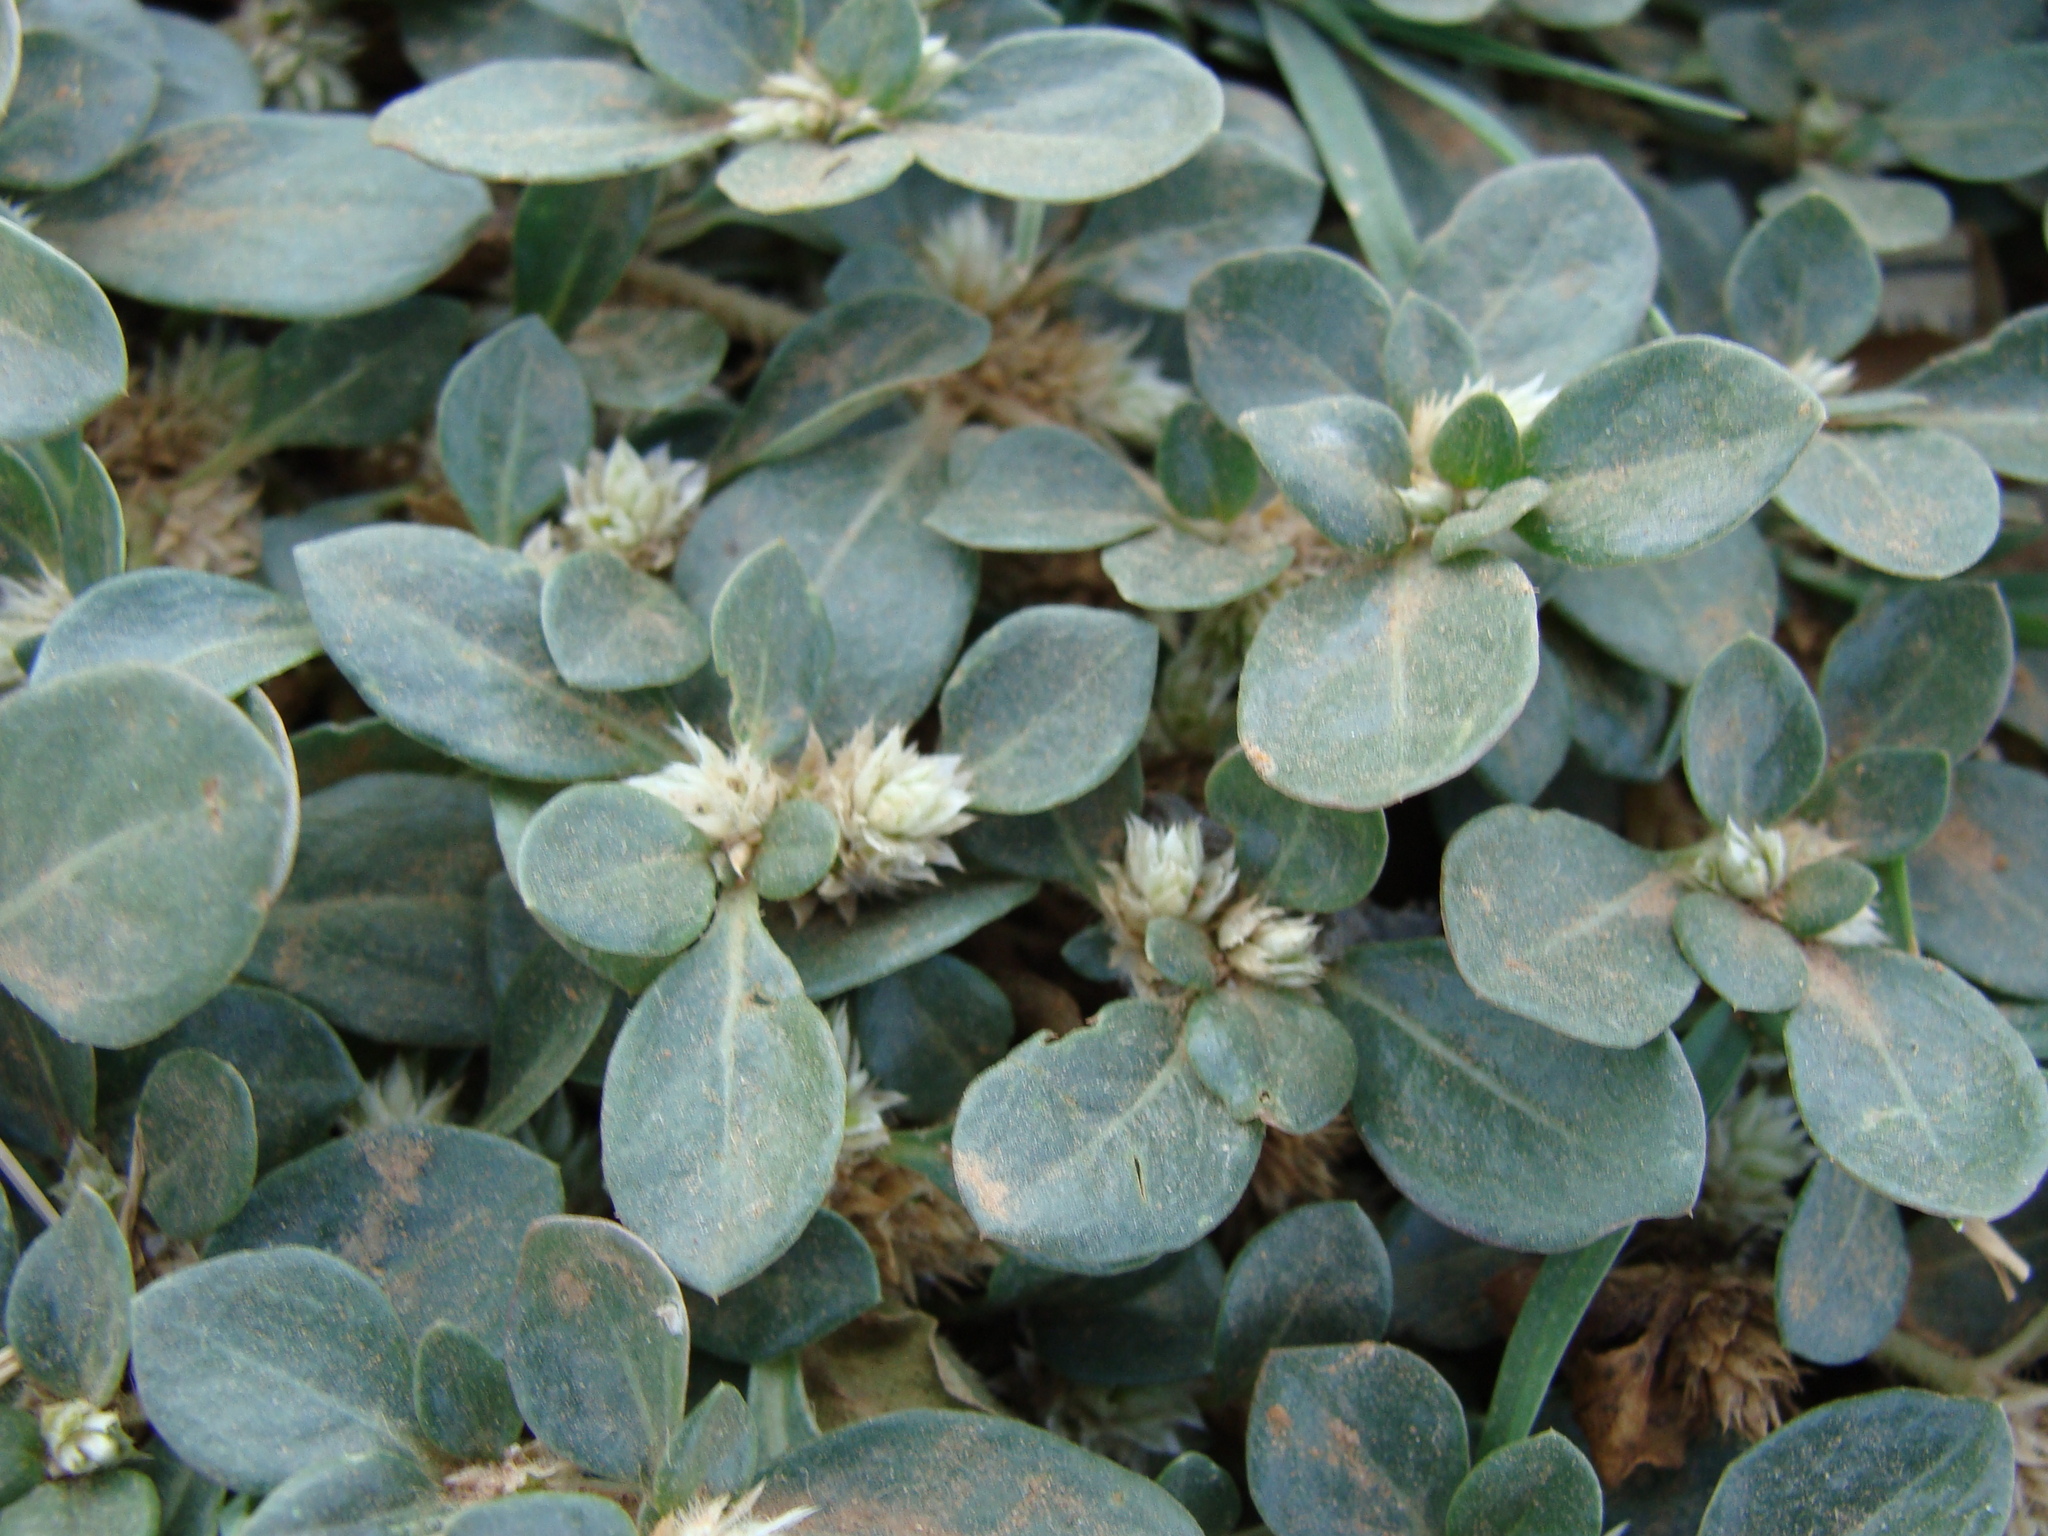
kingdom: Plantae
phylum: Tracheophyta
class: Magnoliopsida
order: Caryophyllales
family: Amaranthaceae
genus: Alternanthera
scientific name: Alternanthera caracasana
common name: Washerwoman
